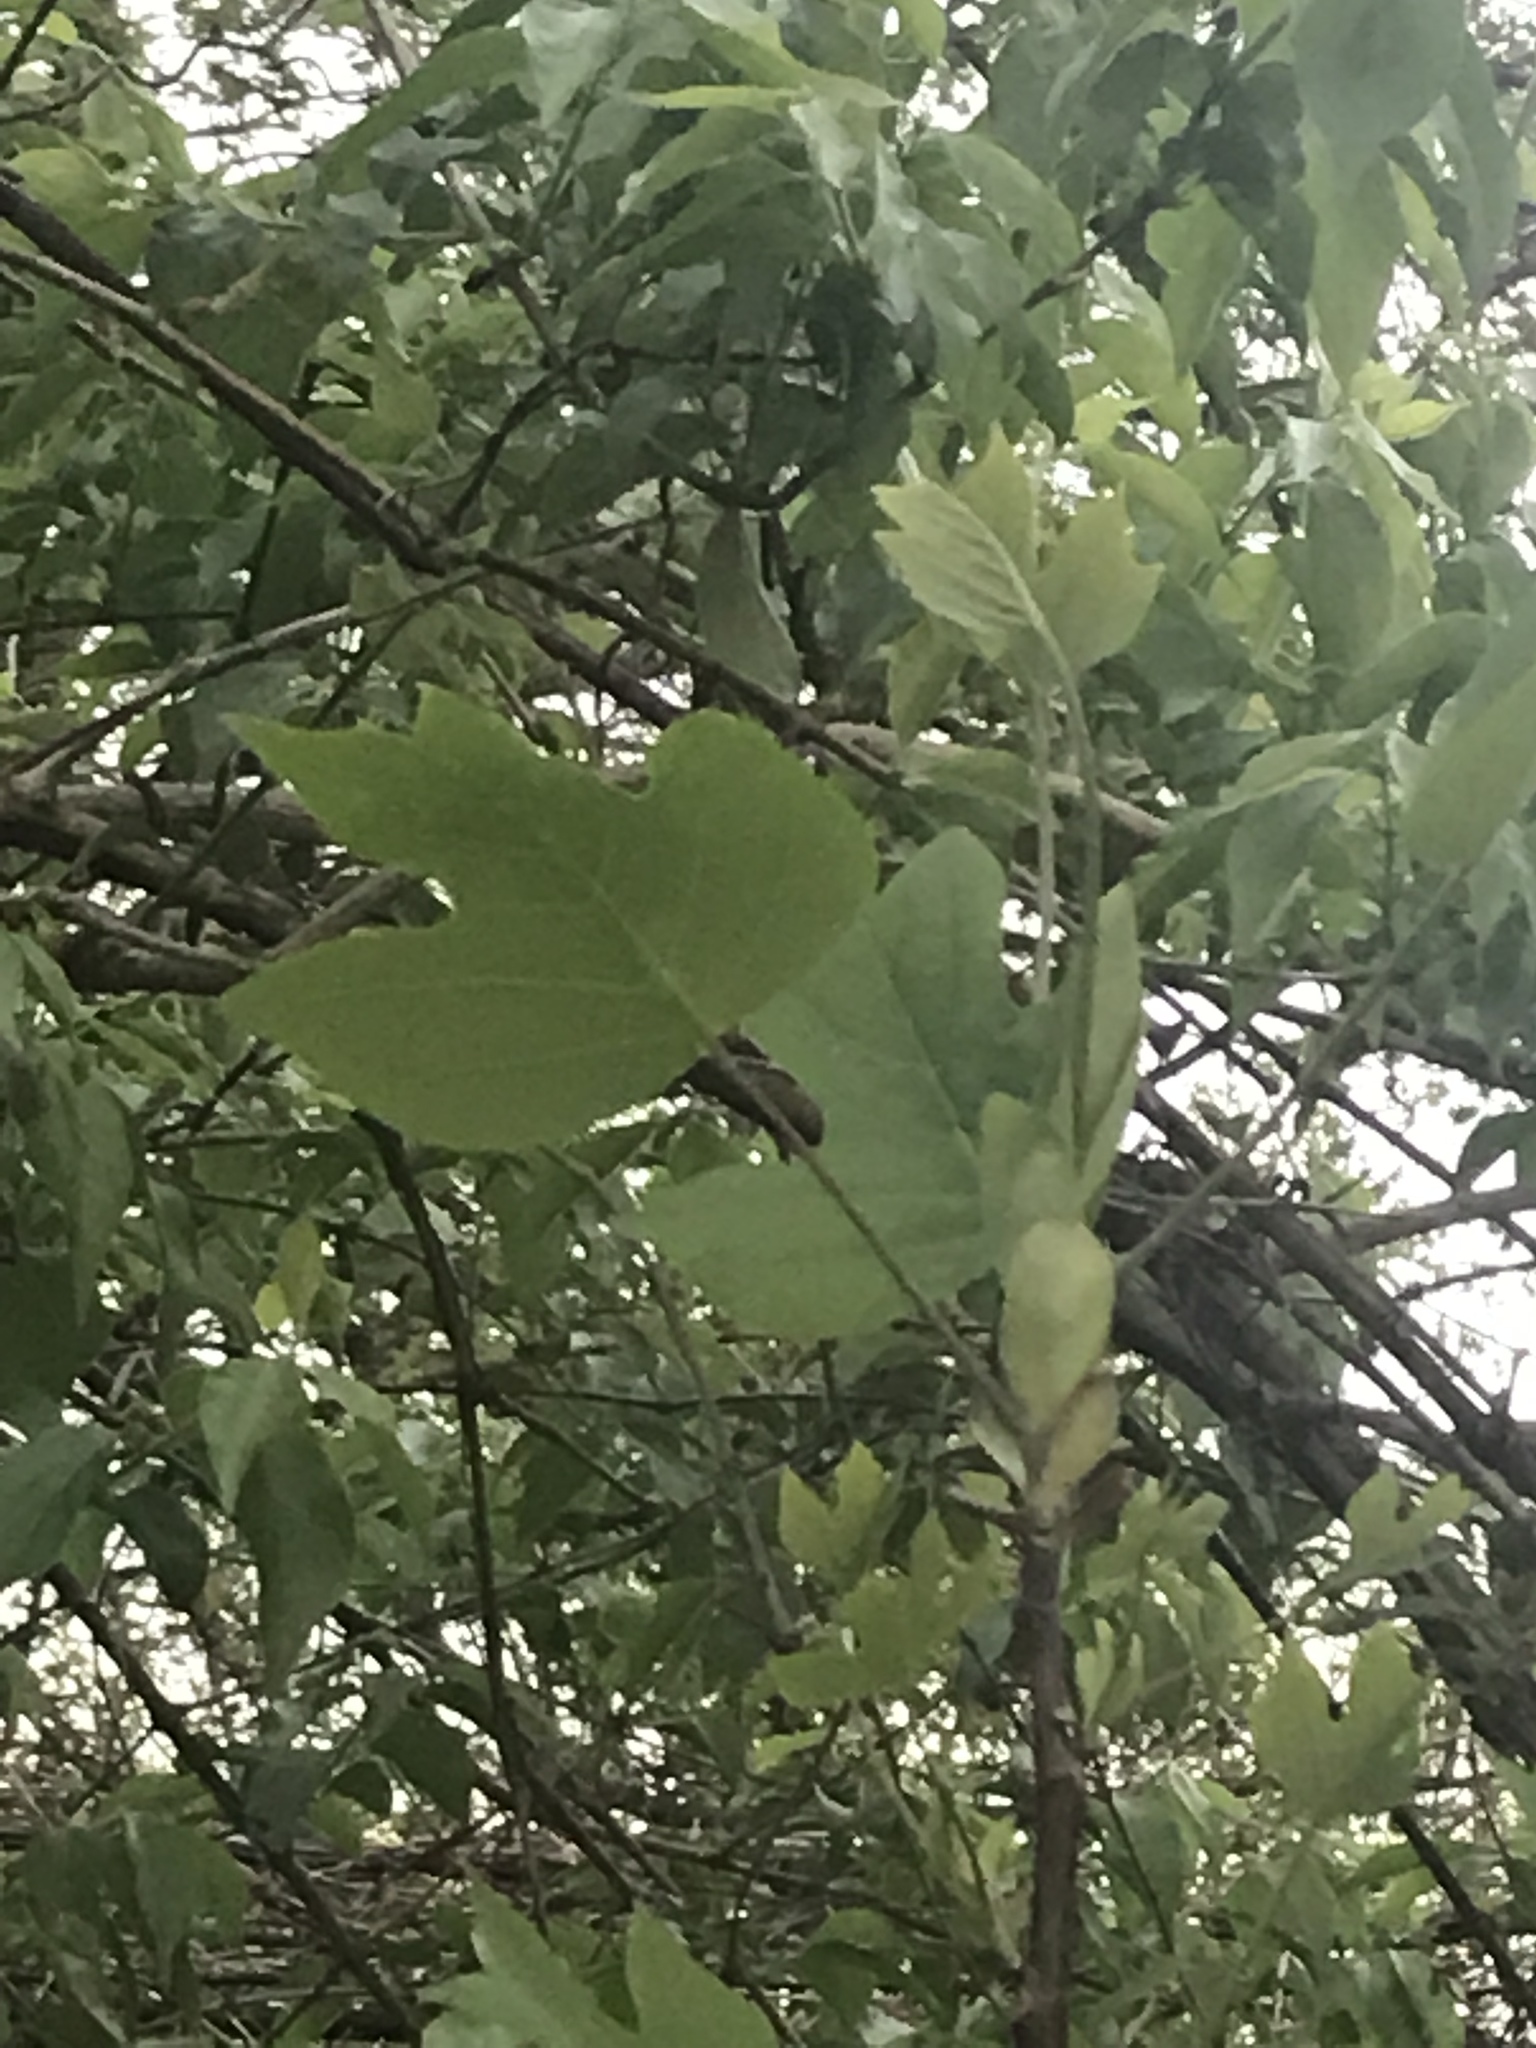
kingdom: Plantae
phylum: Tracheophyta
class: Magnoliopsida
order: Magnoliales
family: Magnoliaceae
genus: Liriodendron
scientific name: Liriodendron tulipifera
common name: Tulip tree
